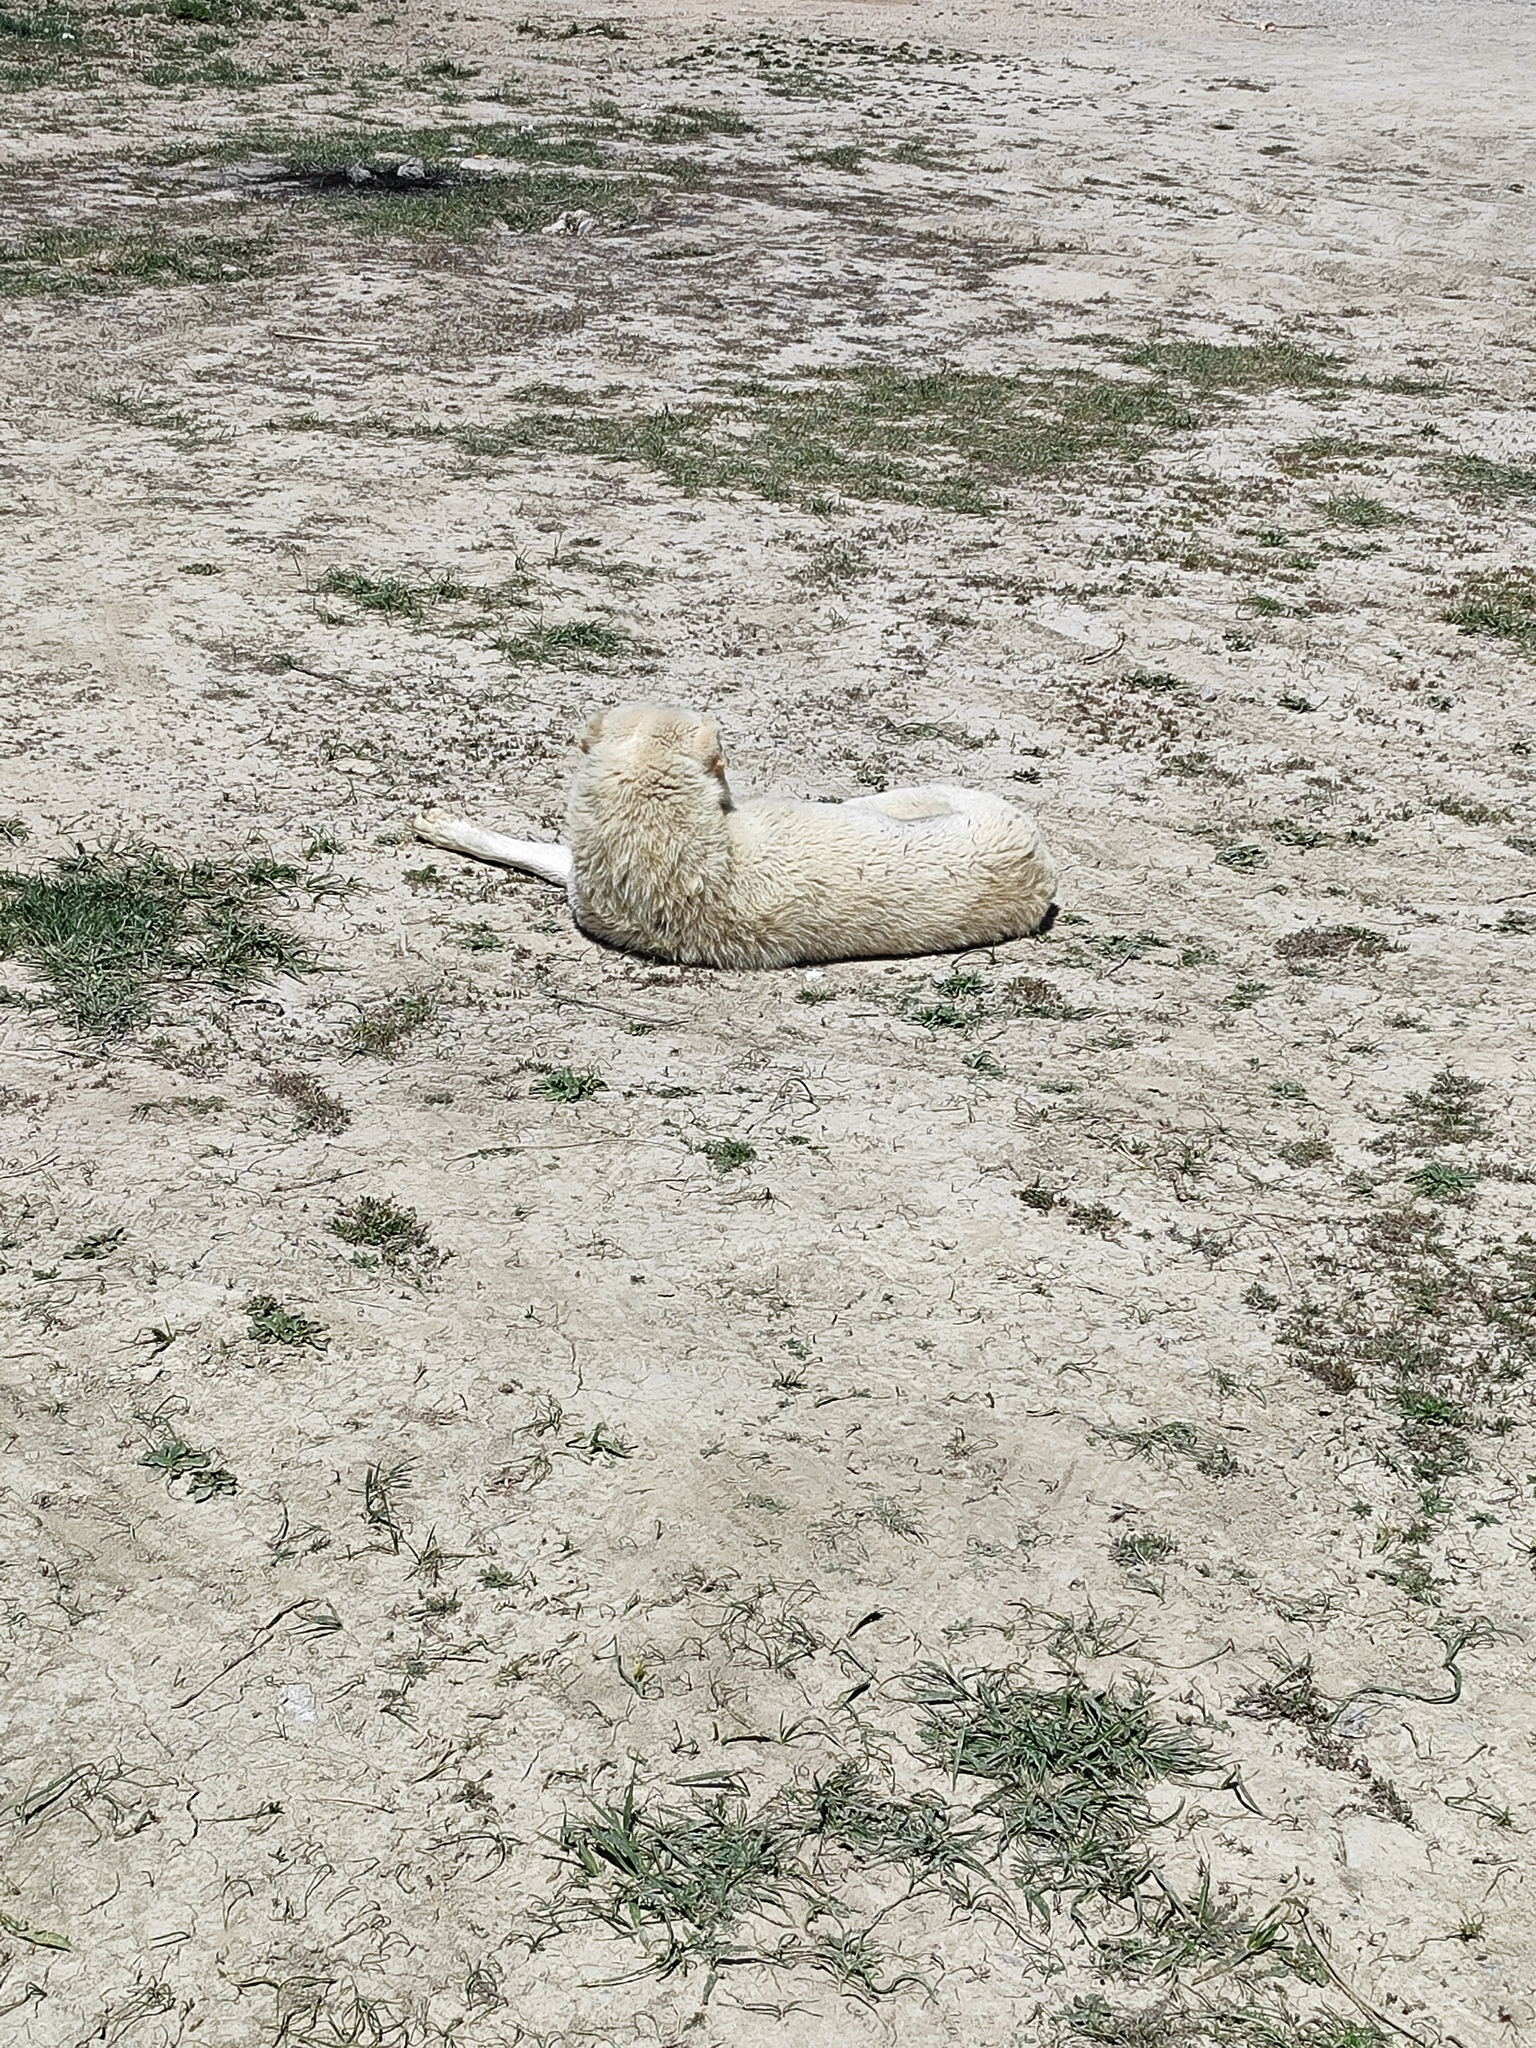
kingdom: Animalia
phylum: Chordata
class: Mammalia
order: Carnivora
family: Canidae
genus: Canis
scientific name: Canis lupus
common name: Gray wolf
